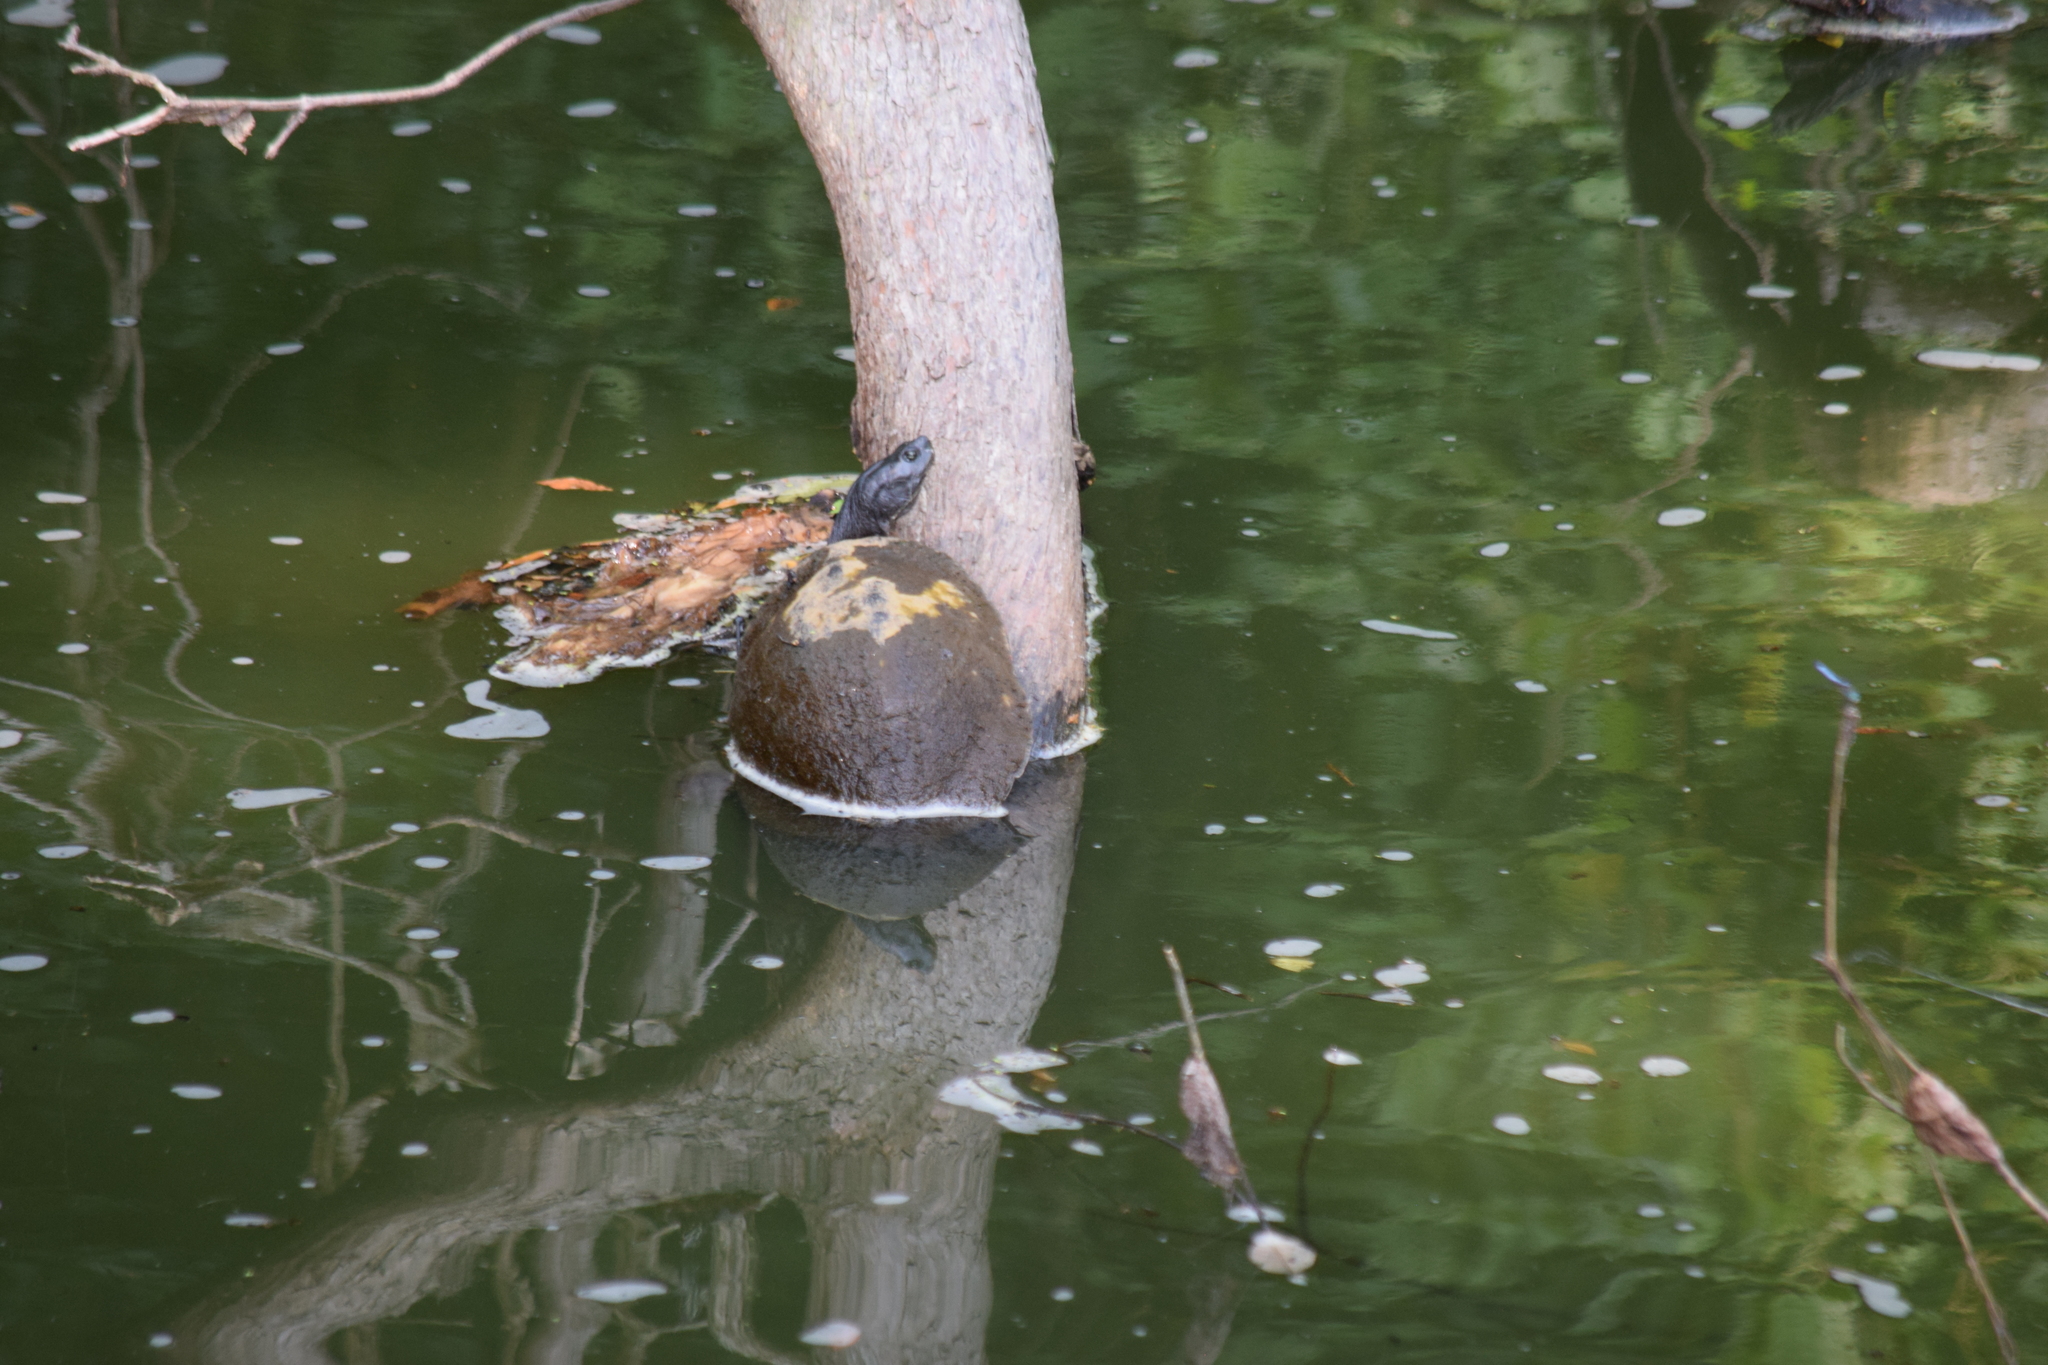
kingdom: Animalia
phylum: Chordata
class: Testudines
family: Emydidae
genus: Pseudemys
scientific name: Pseudemys rubriventris
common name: American red-bellied turtle
